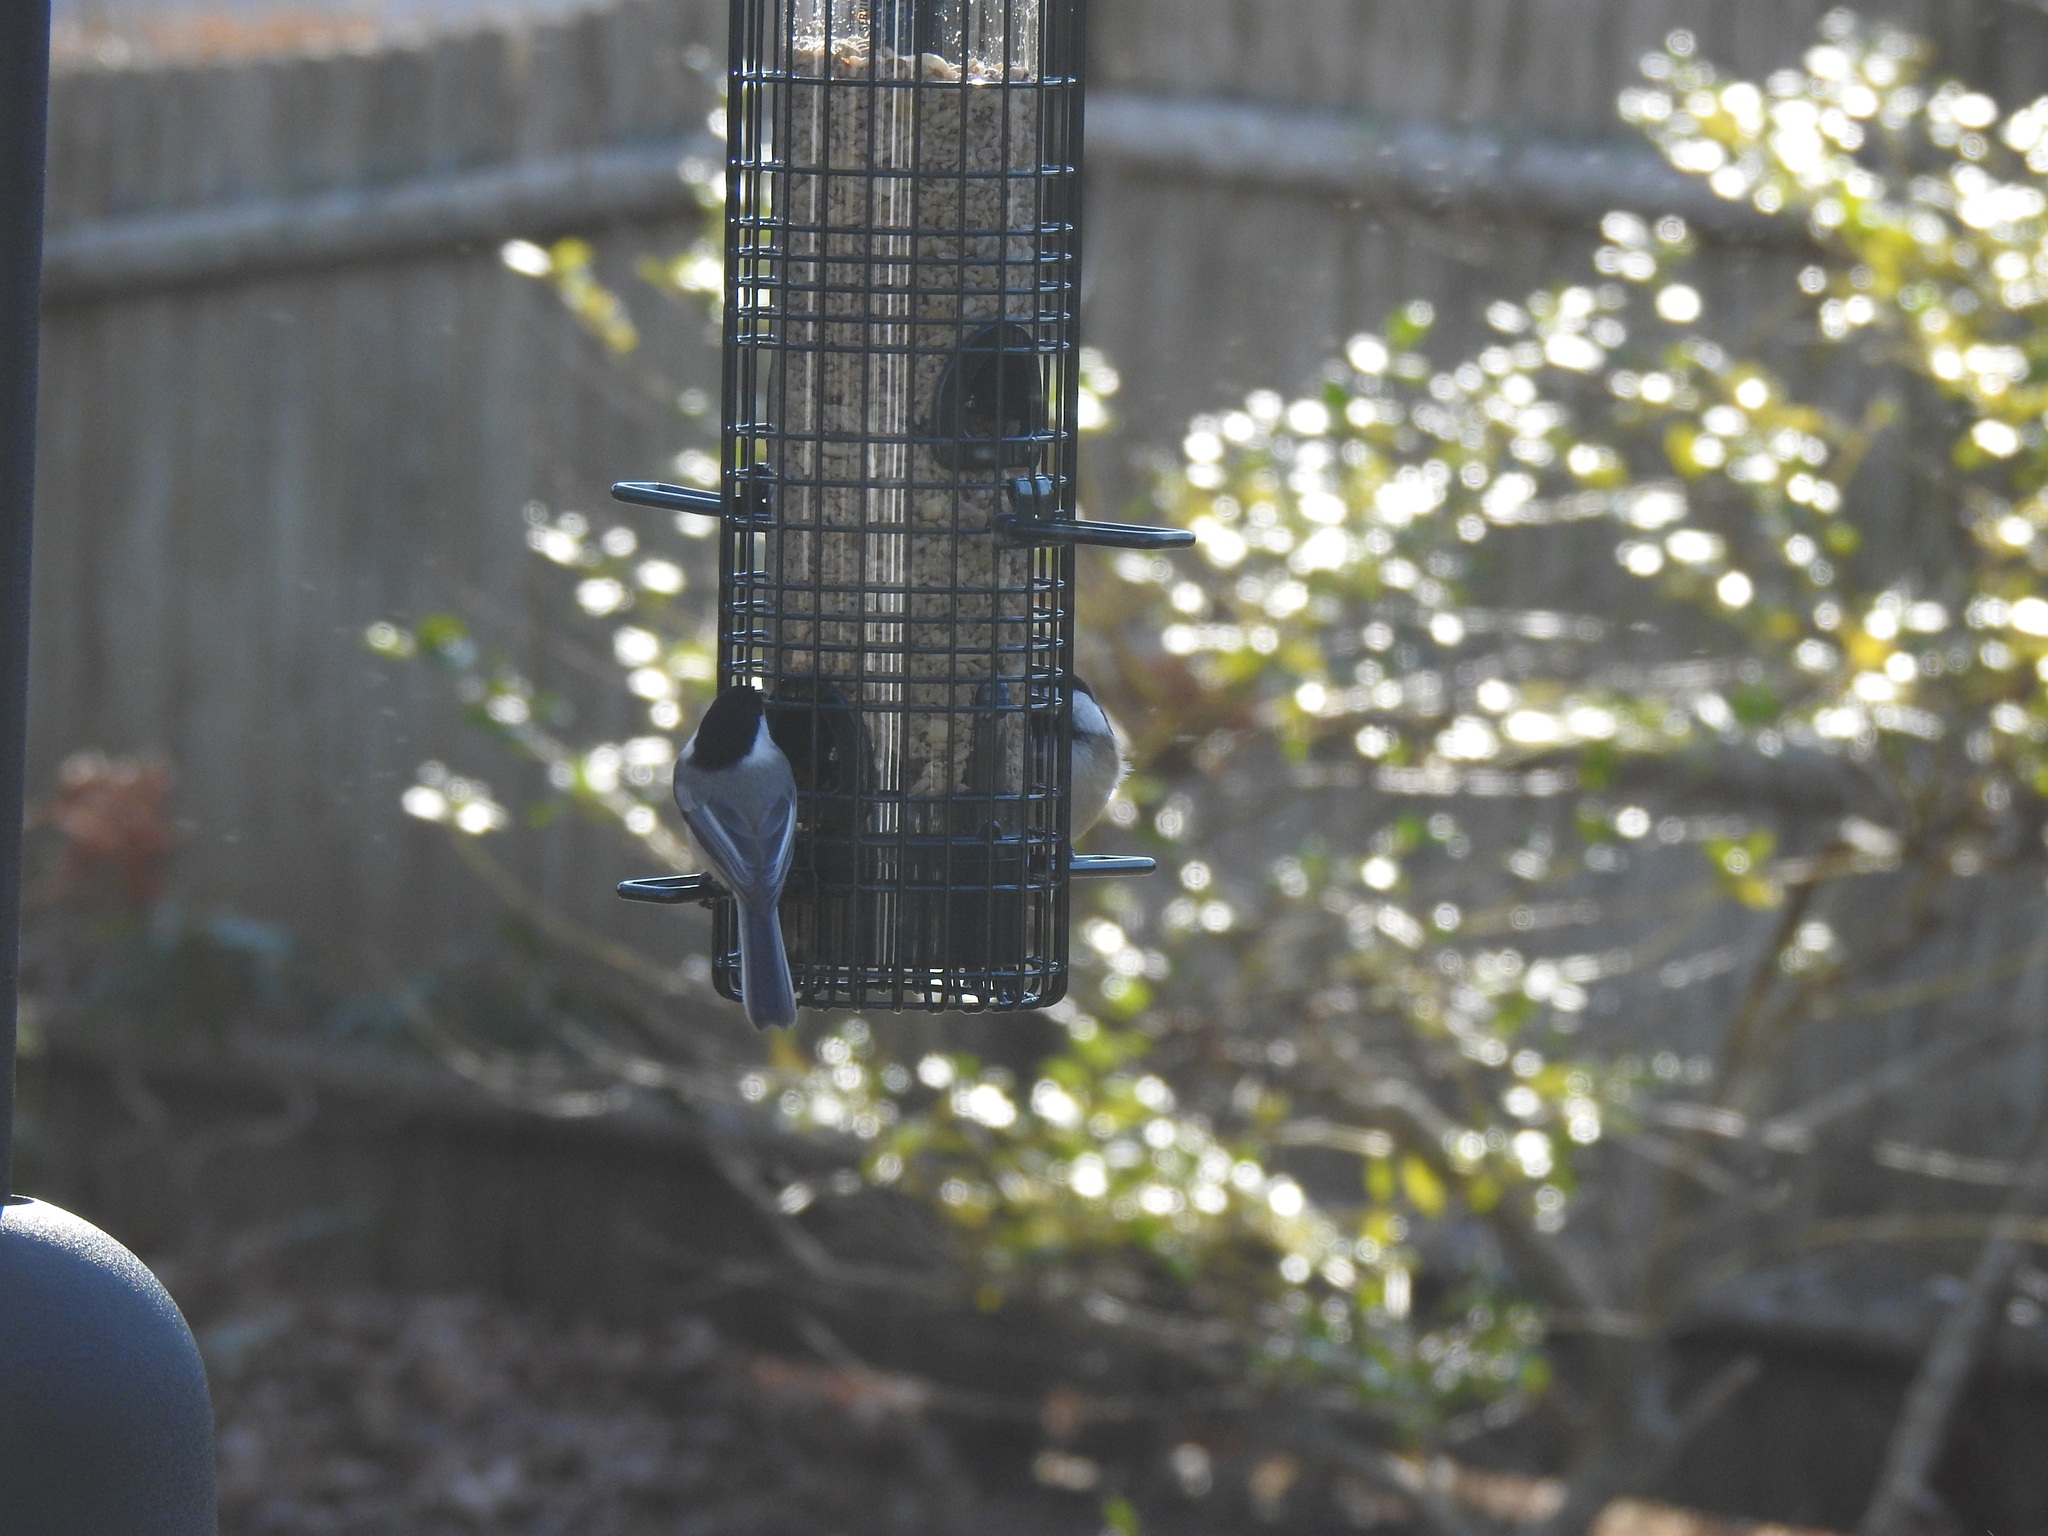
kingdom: Animalia
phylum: Chordata
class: Aves
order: Passeriformes
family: Paridae
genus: Poecile
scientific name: Poecile atricapillus
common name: Black-capped chickadee
